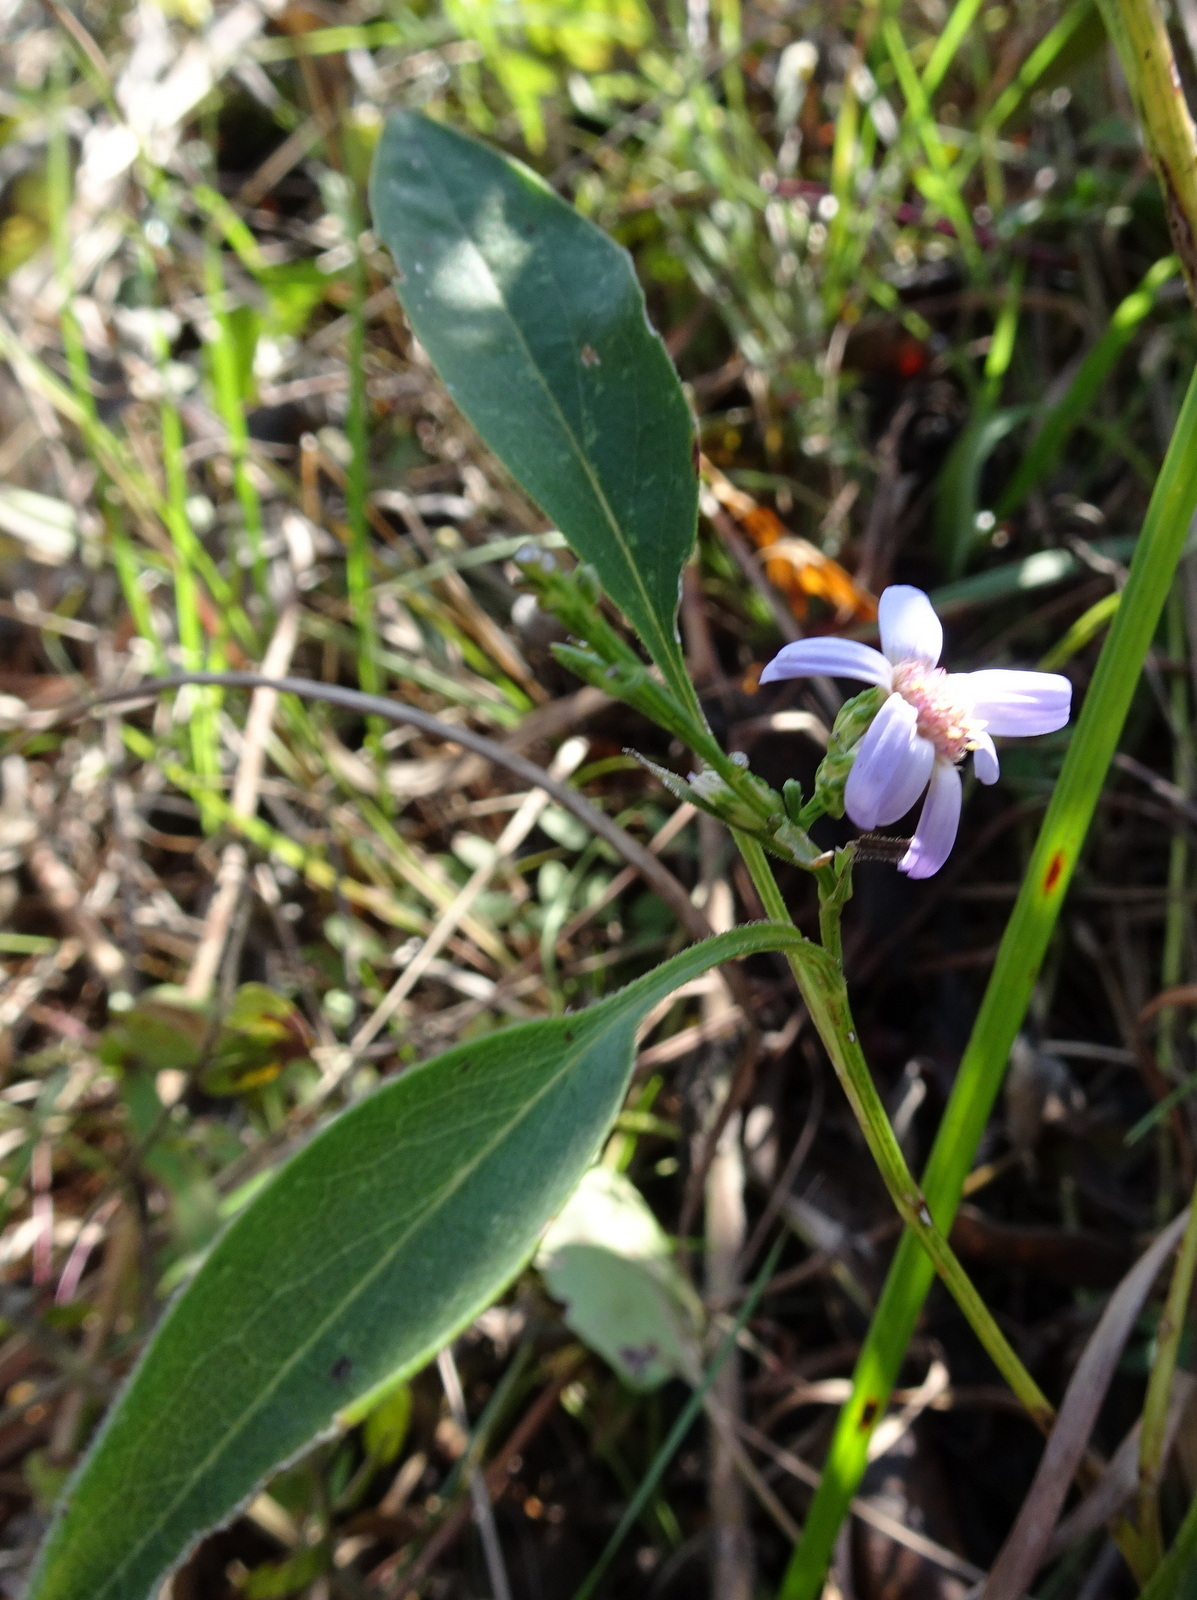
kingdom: Plantae
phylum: Tracheophyta
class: Magnoliopsida
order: Asterales
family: Asteraceae
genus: Symphyotrichum
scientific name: Symphyotrichum oolentangiense
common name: Azure aster
